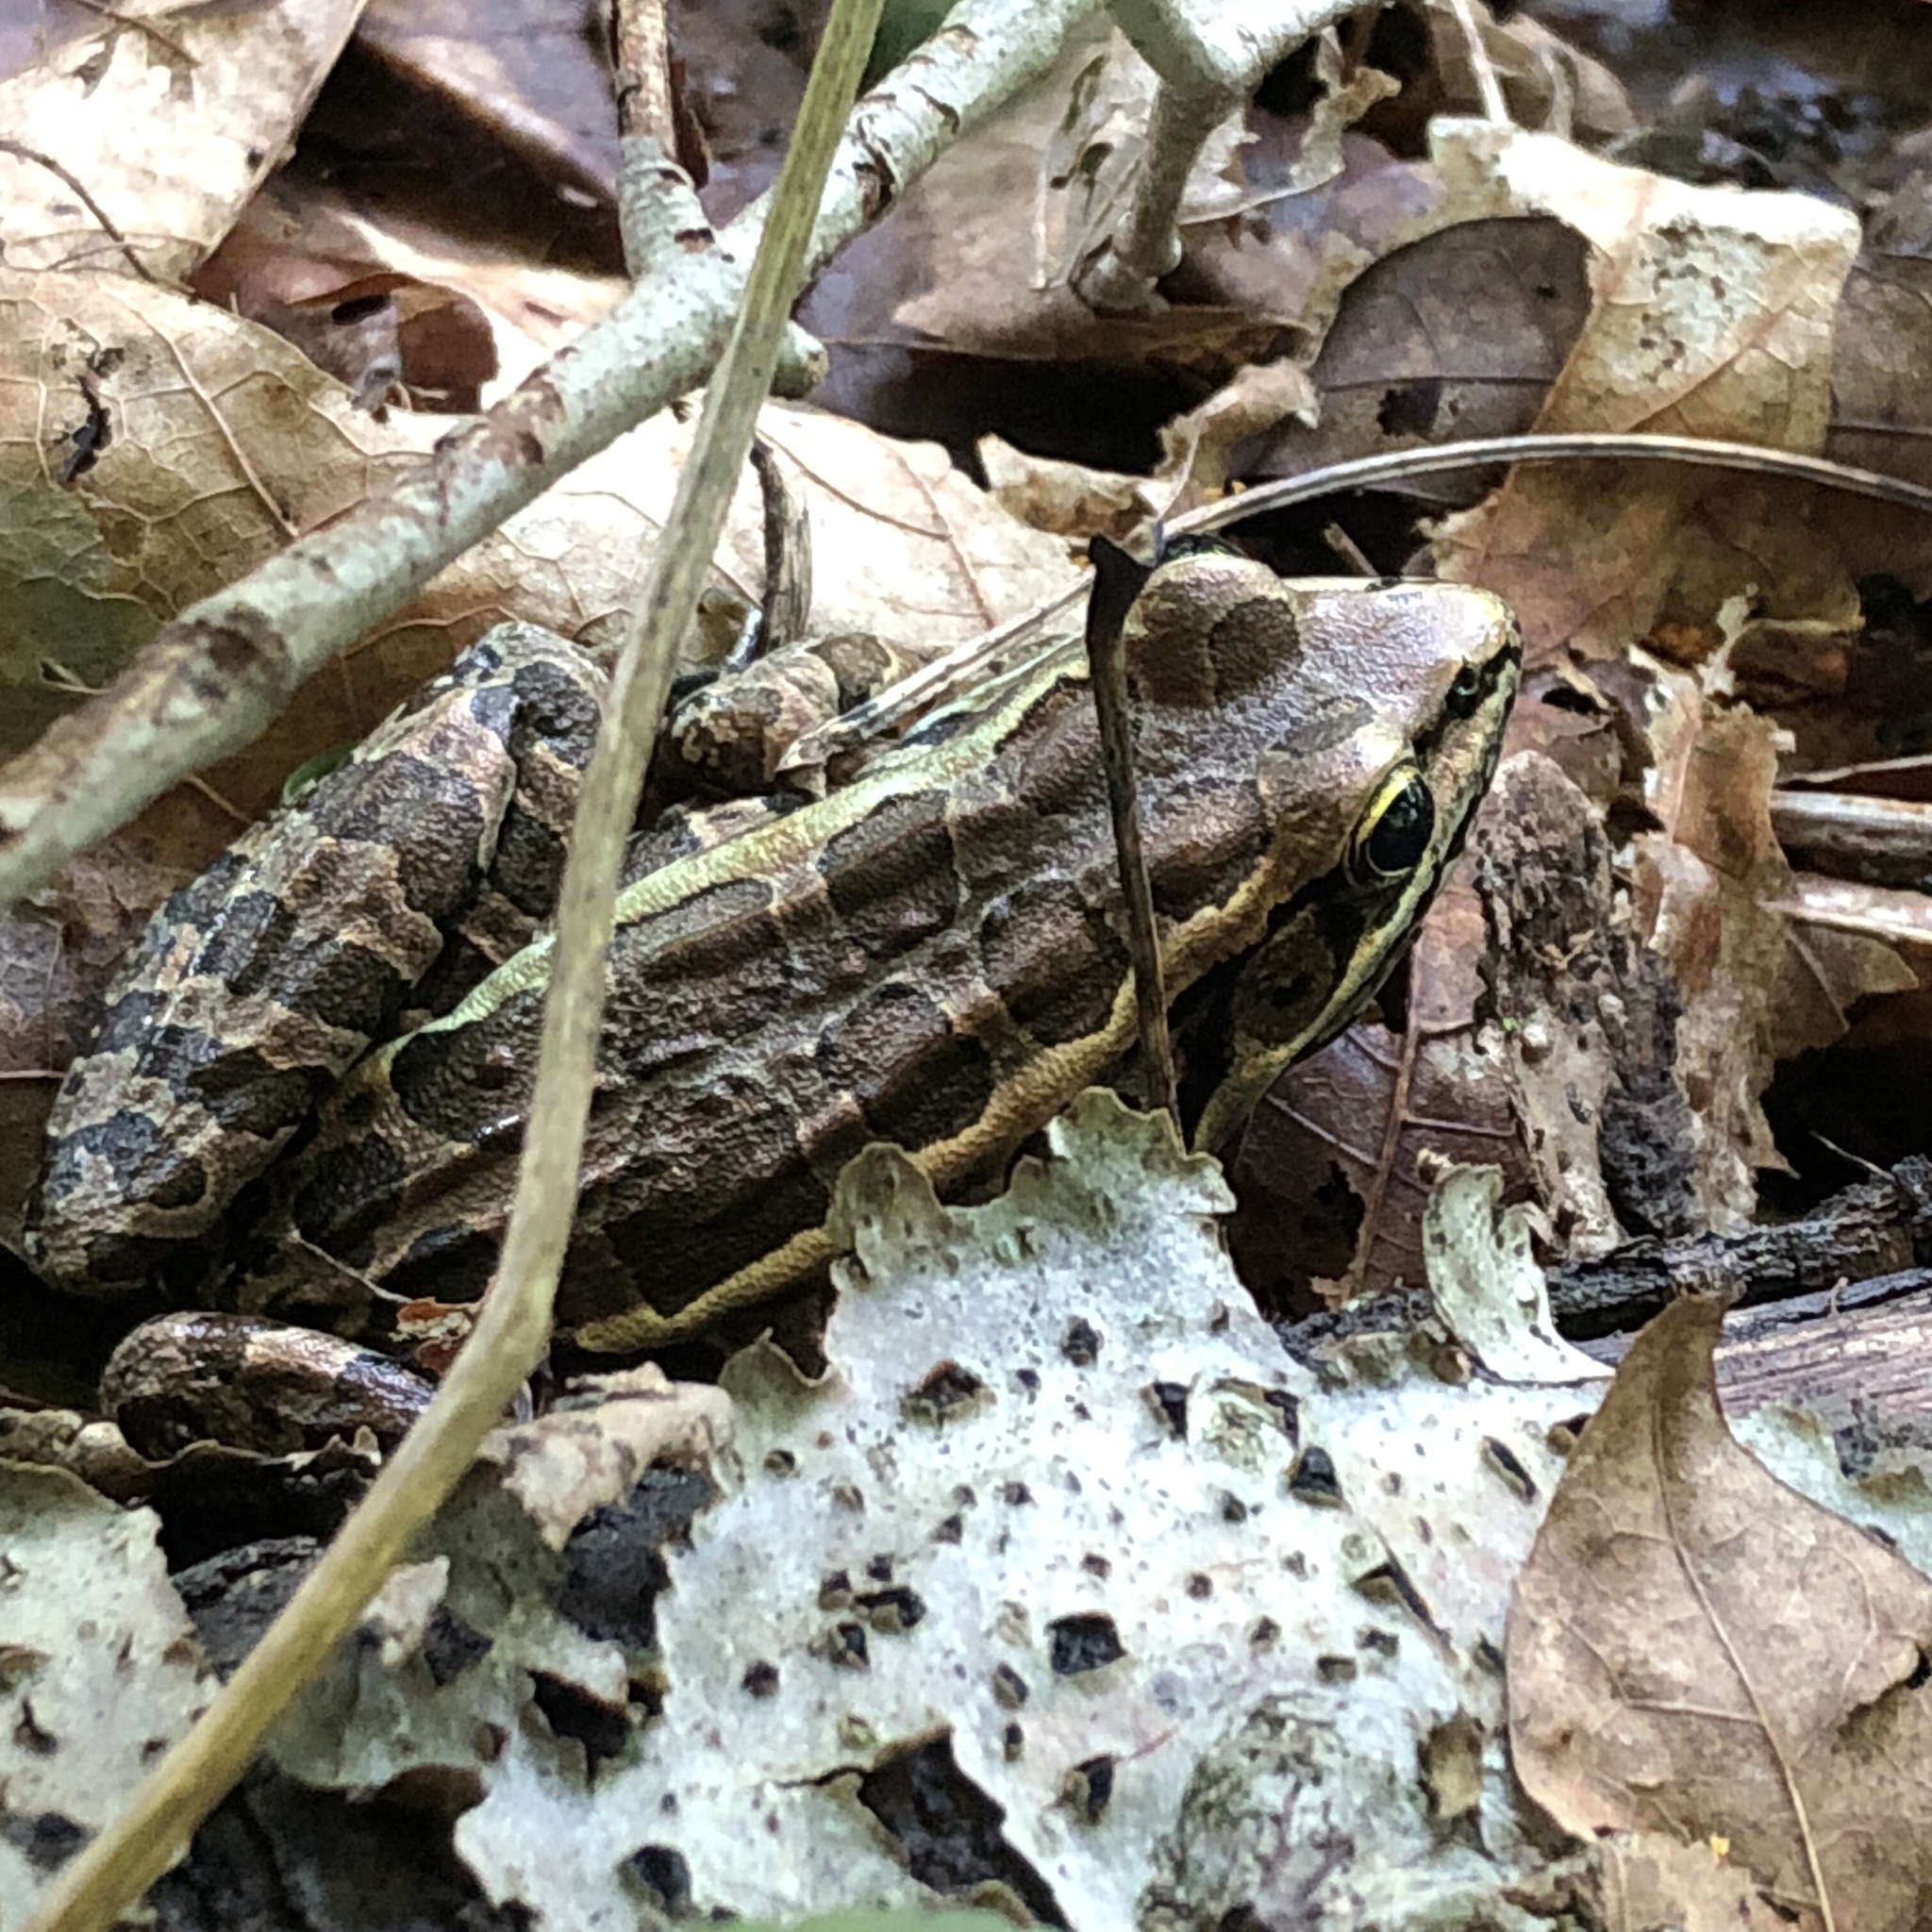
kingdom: Animalia
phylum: Chordata
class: Amphibia
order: Anura
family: Ranidae
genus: Lithobates
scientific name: Lithobates palustris
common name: Pickerel frog
